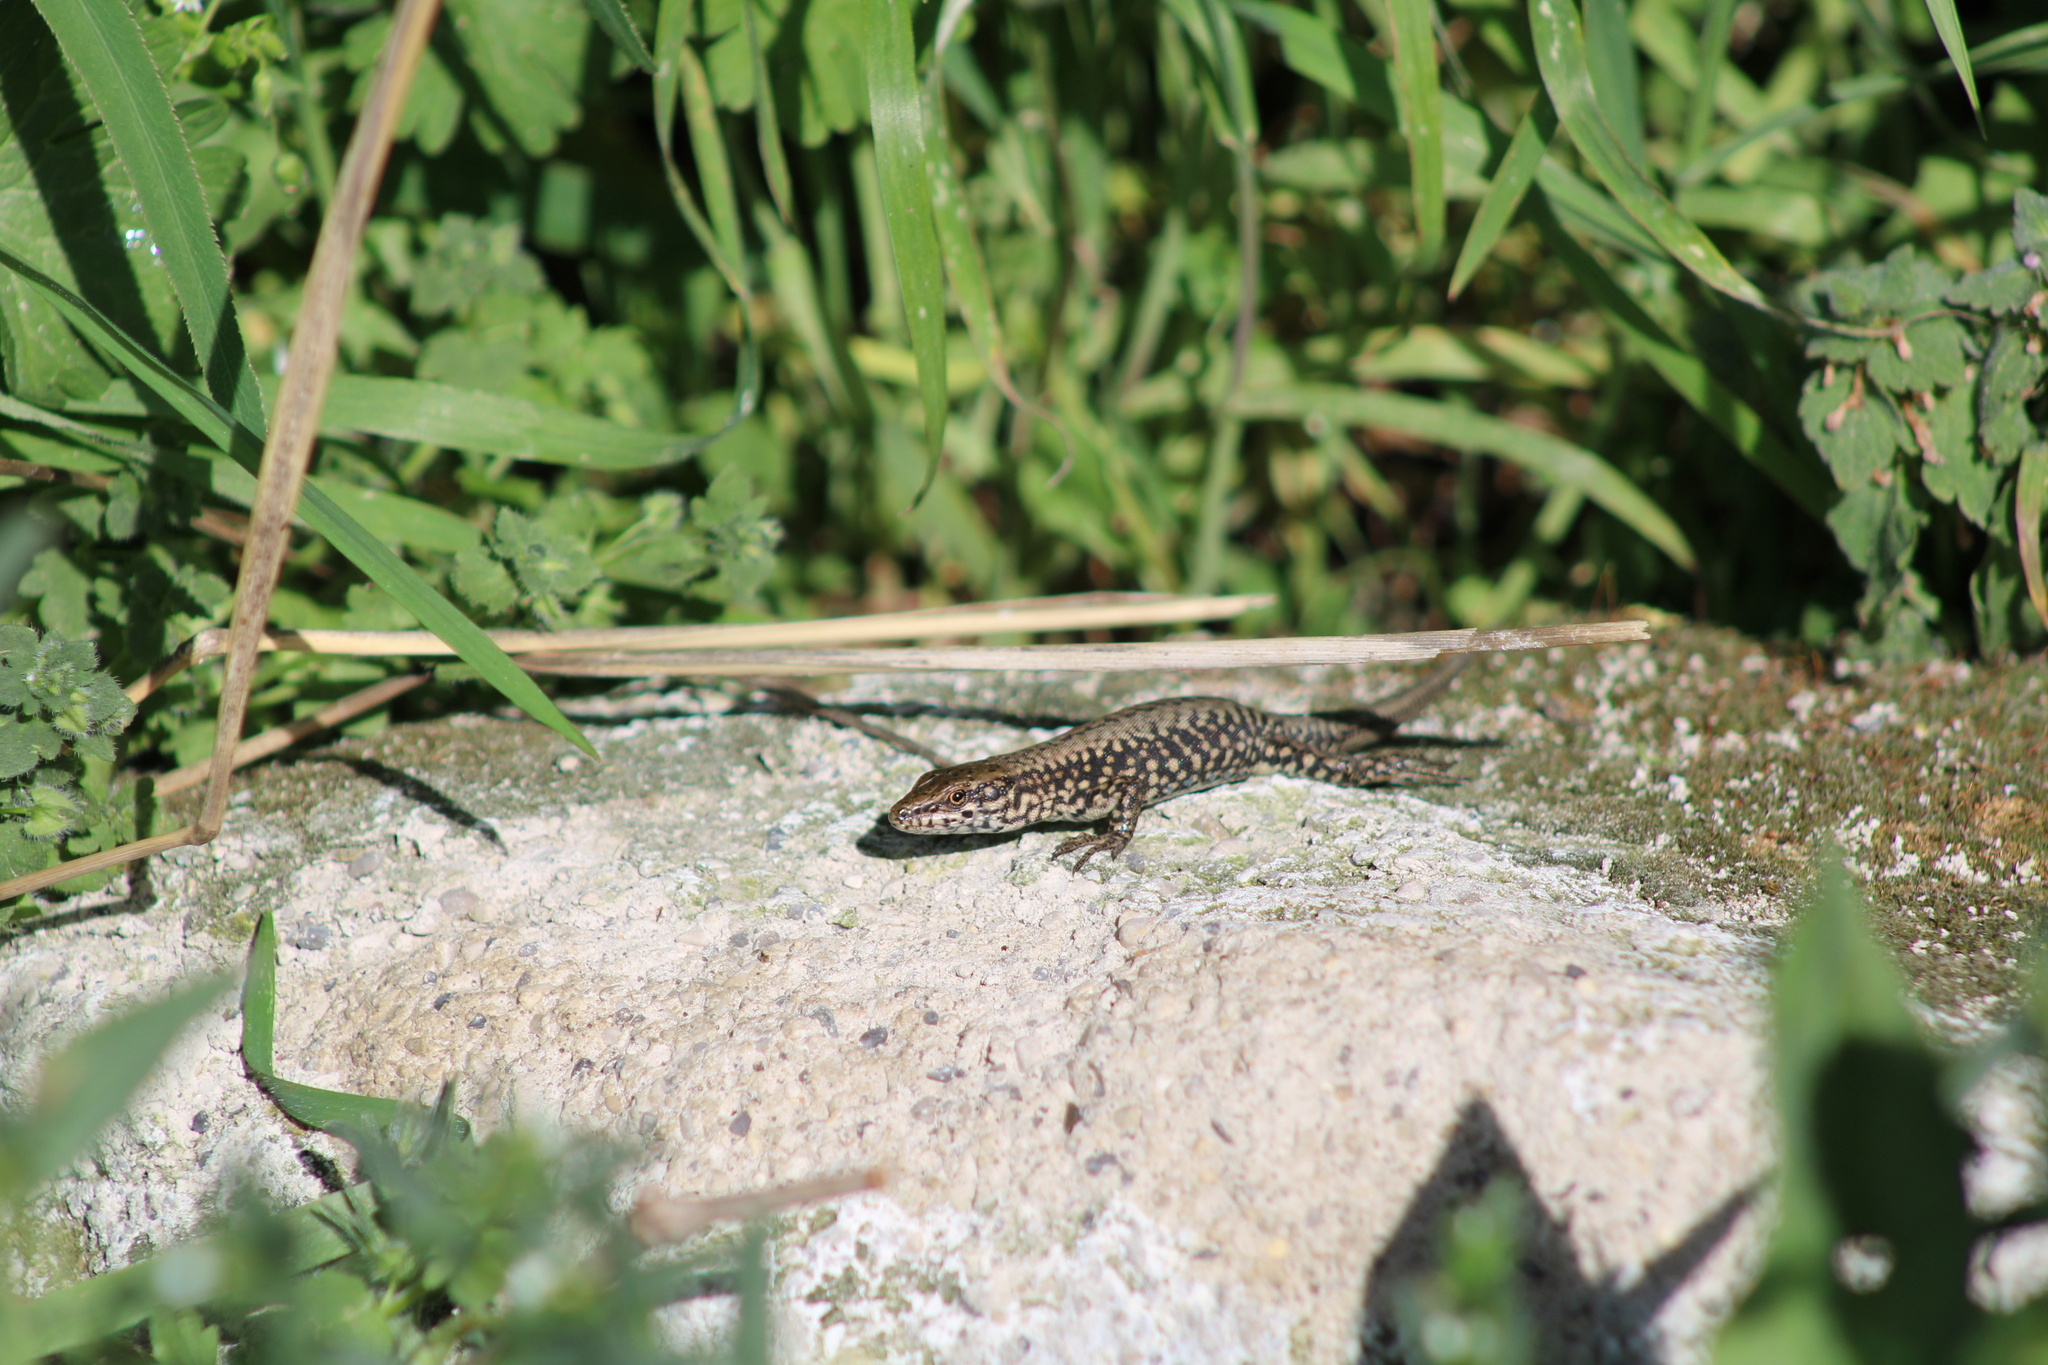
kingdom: Animalia
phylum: Chordata
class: Squamata
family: Lacertidae
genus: Podarcis
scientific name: Podarcis muralis
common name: Common wall lizard
